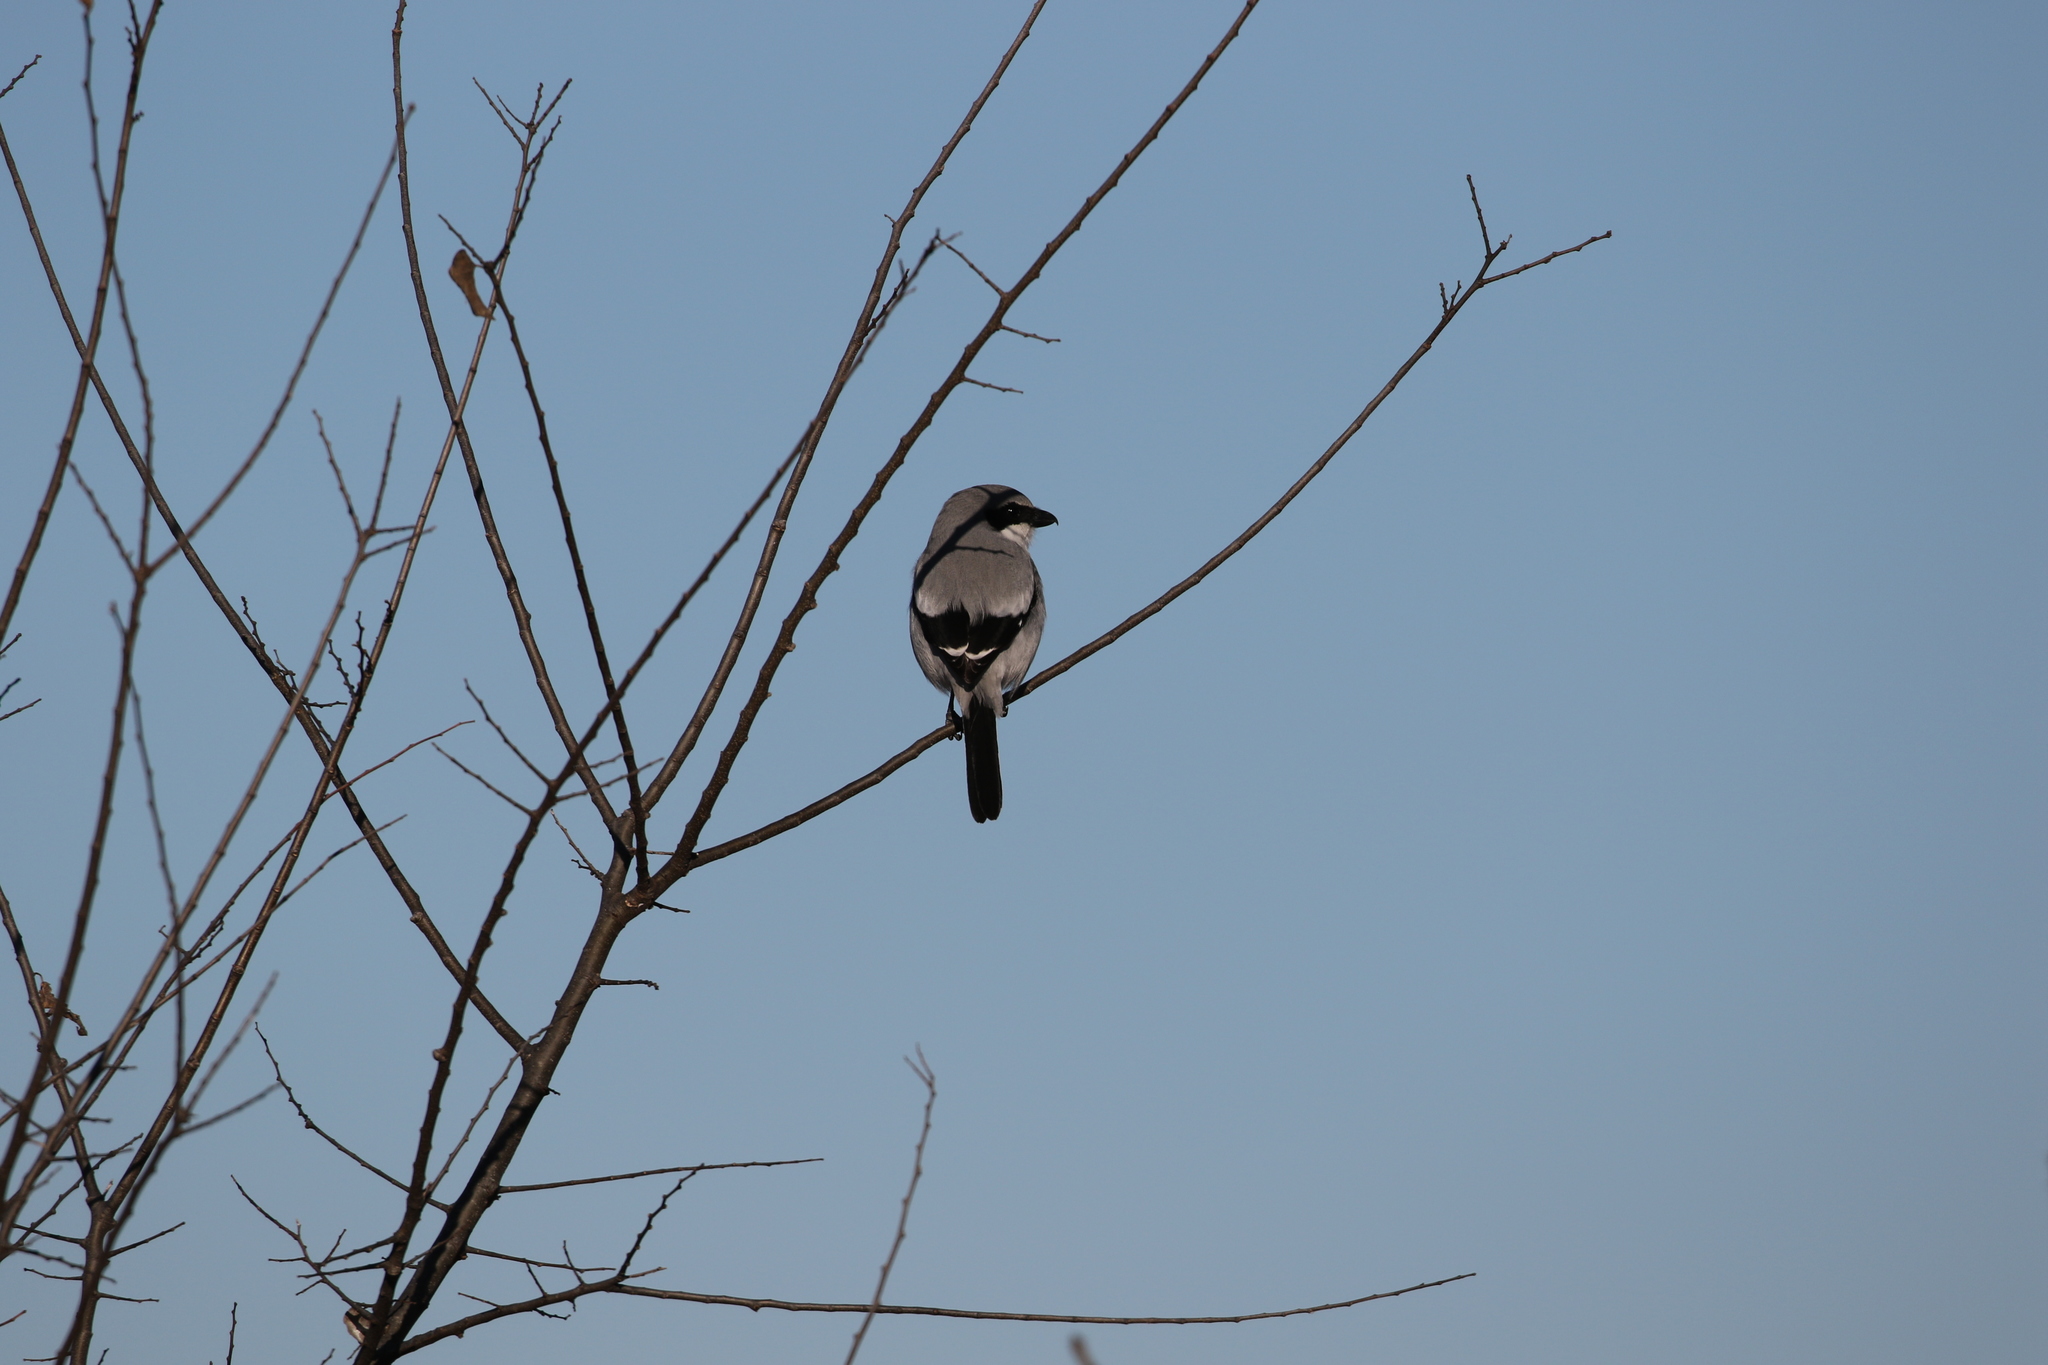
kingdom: Animalia
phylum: Chordata
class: Aves
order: Passeriformes
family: Laniidae
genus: Lanius
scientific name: Lanius ludovicianus
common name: Loggerhead shrike
